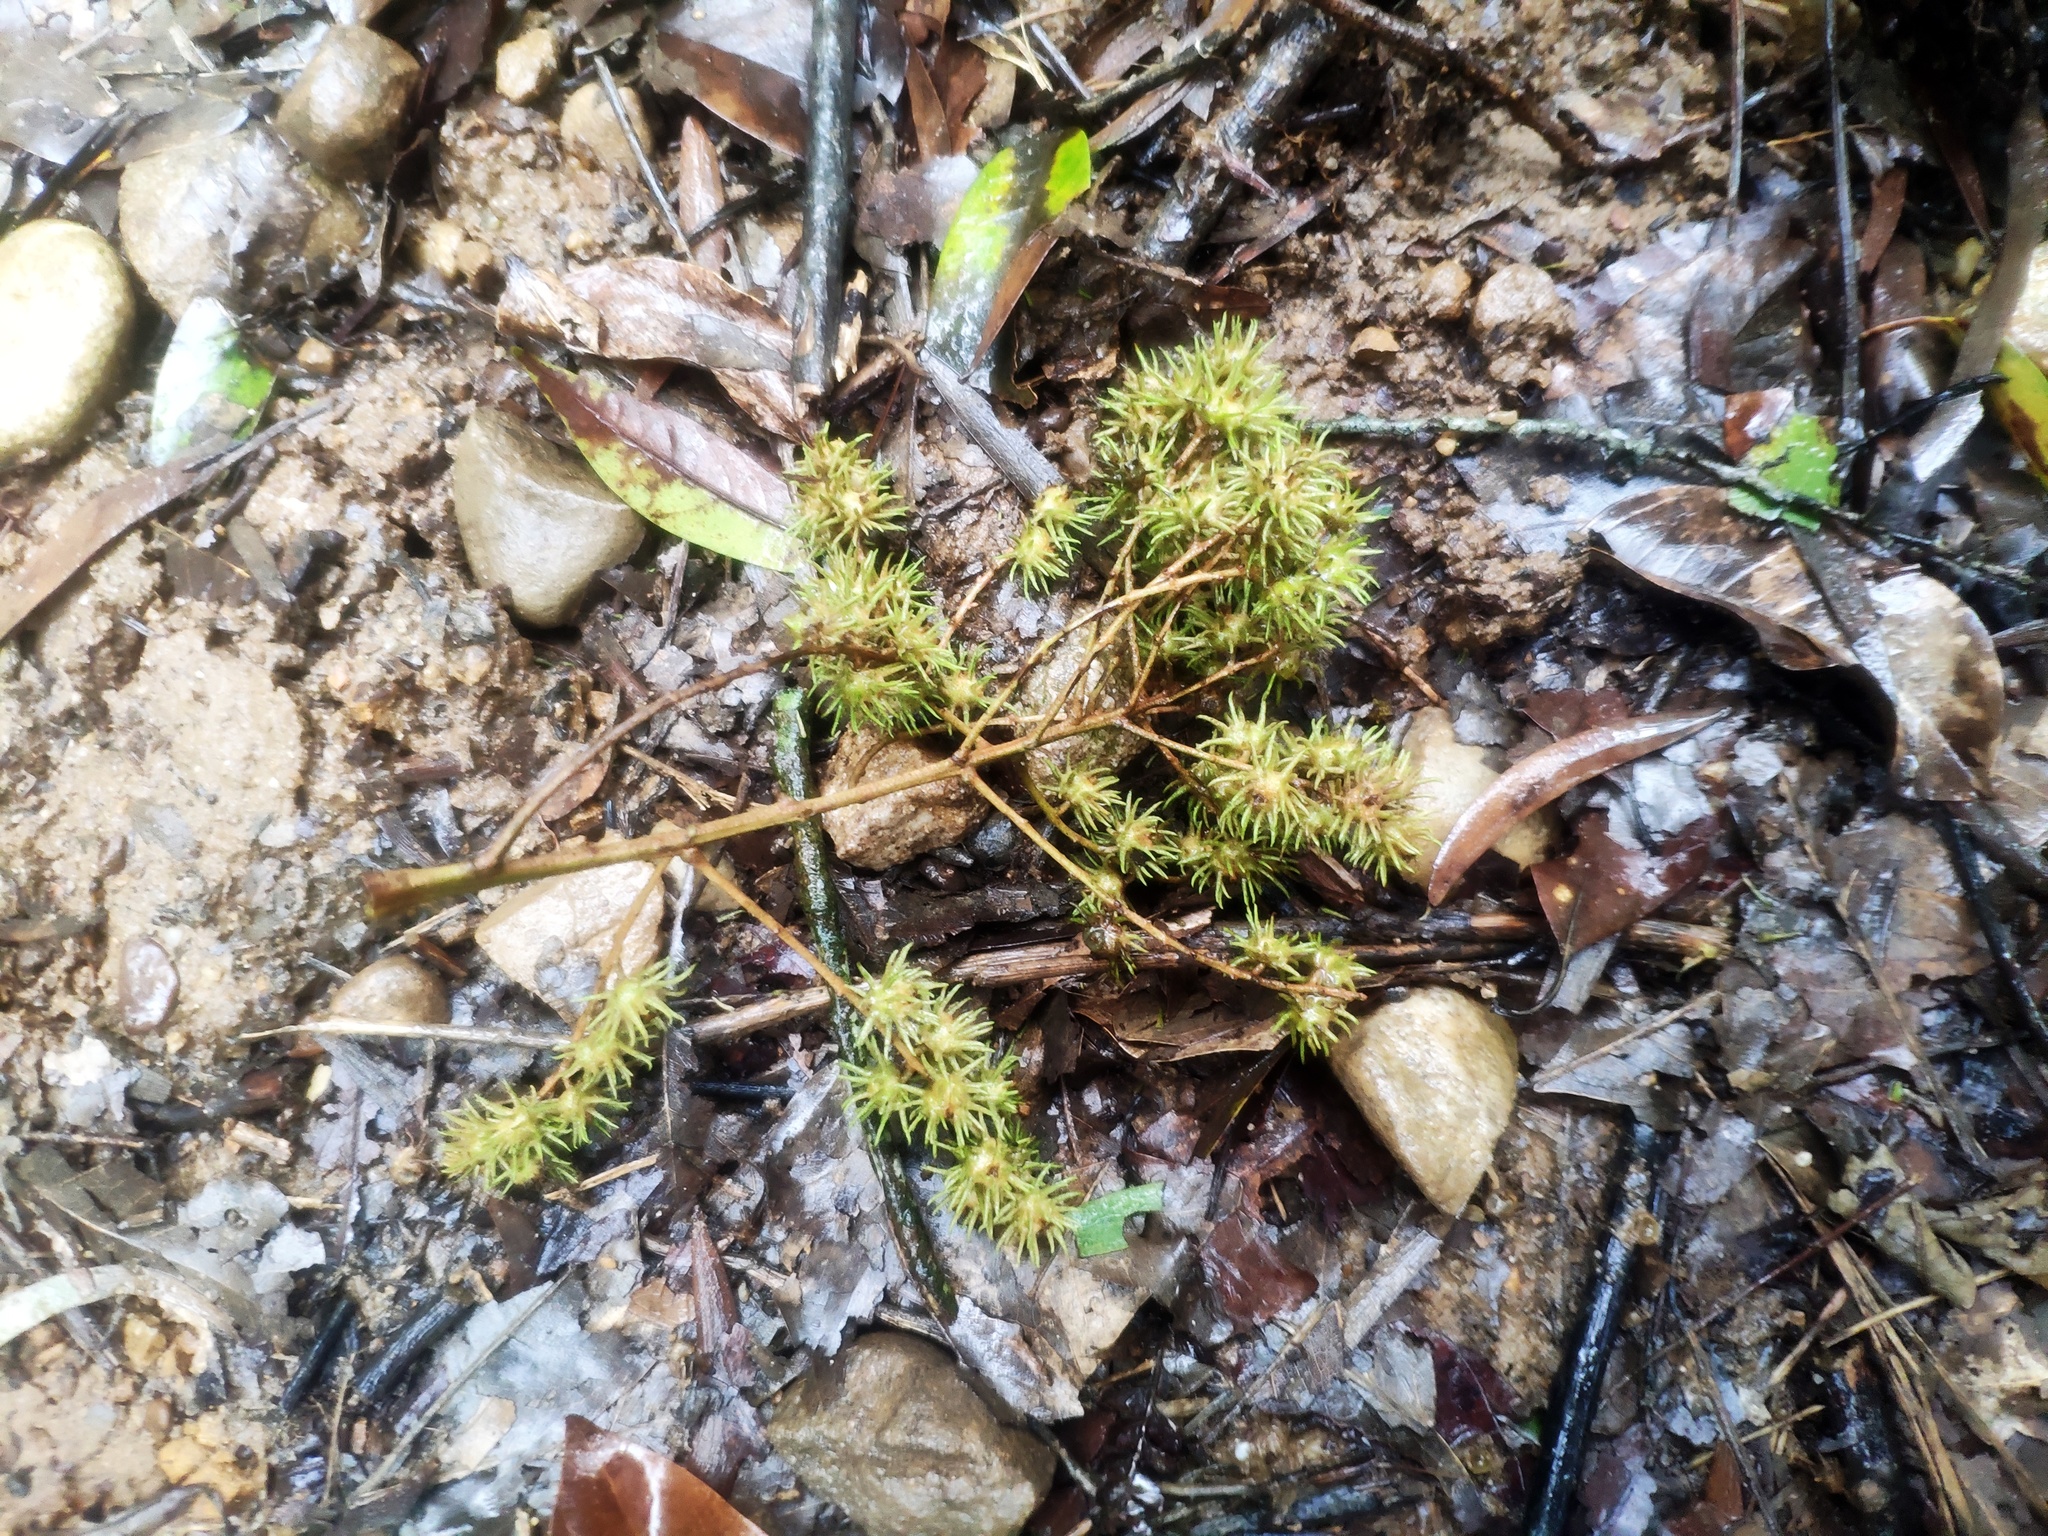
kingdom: Plantae
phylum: Tracheophyta
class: Magnoliopsida
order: Malpighiales
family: Euphorbiaceae
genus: Mallotus
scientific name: Mallotus paniculatus
